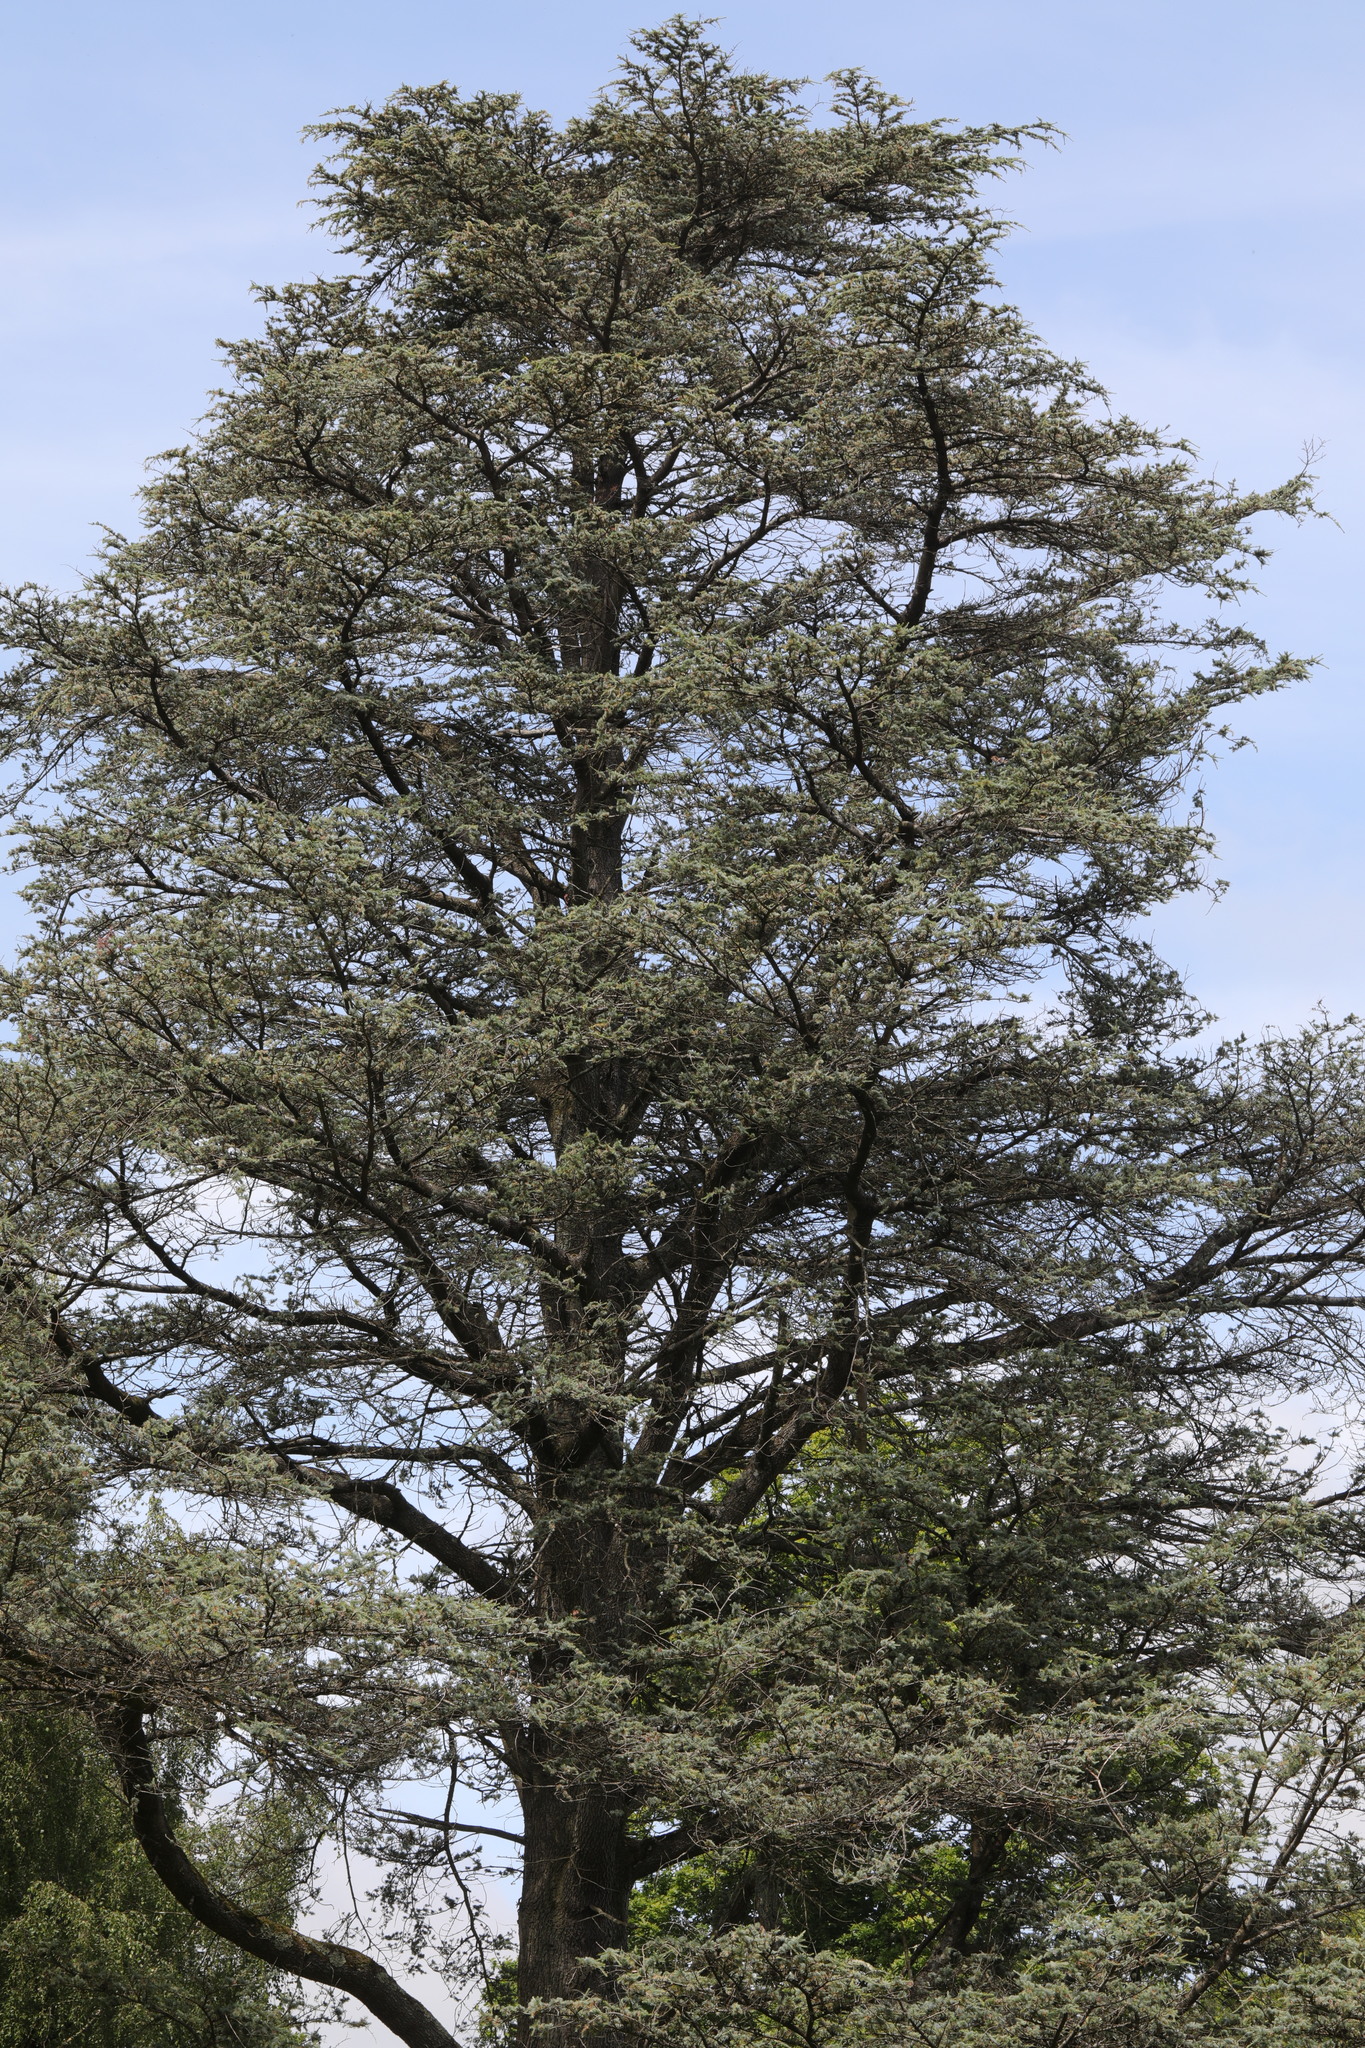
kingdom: Plantae
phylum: Tracheophyta
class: Pinopsida
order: Pinales
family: Pinaceae
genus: Cedrus
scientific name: Cedrus atlantica
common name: Atlas cedar
